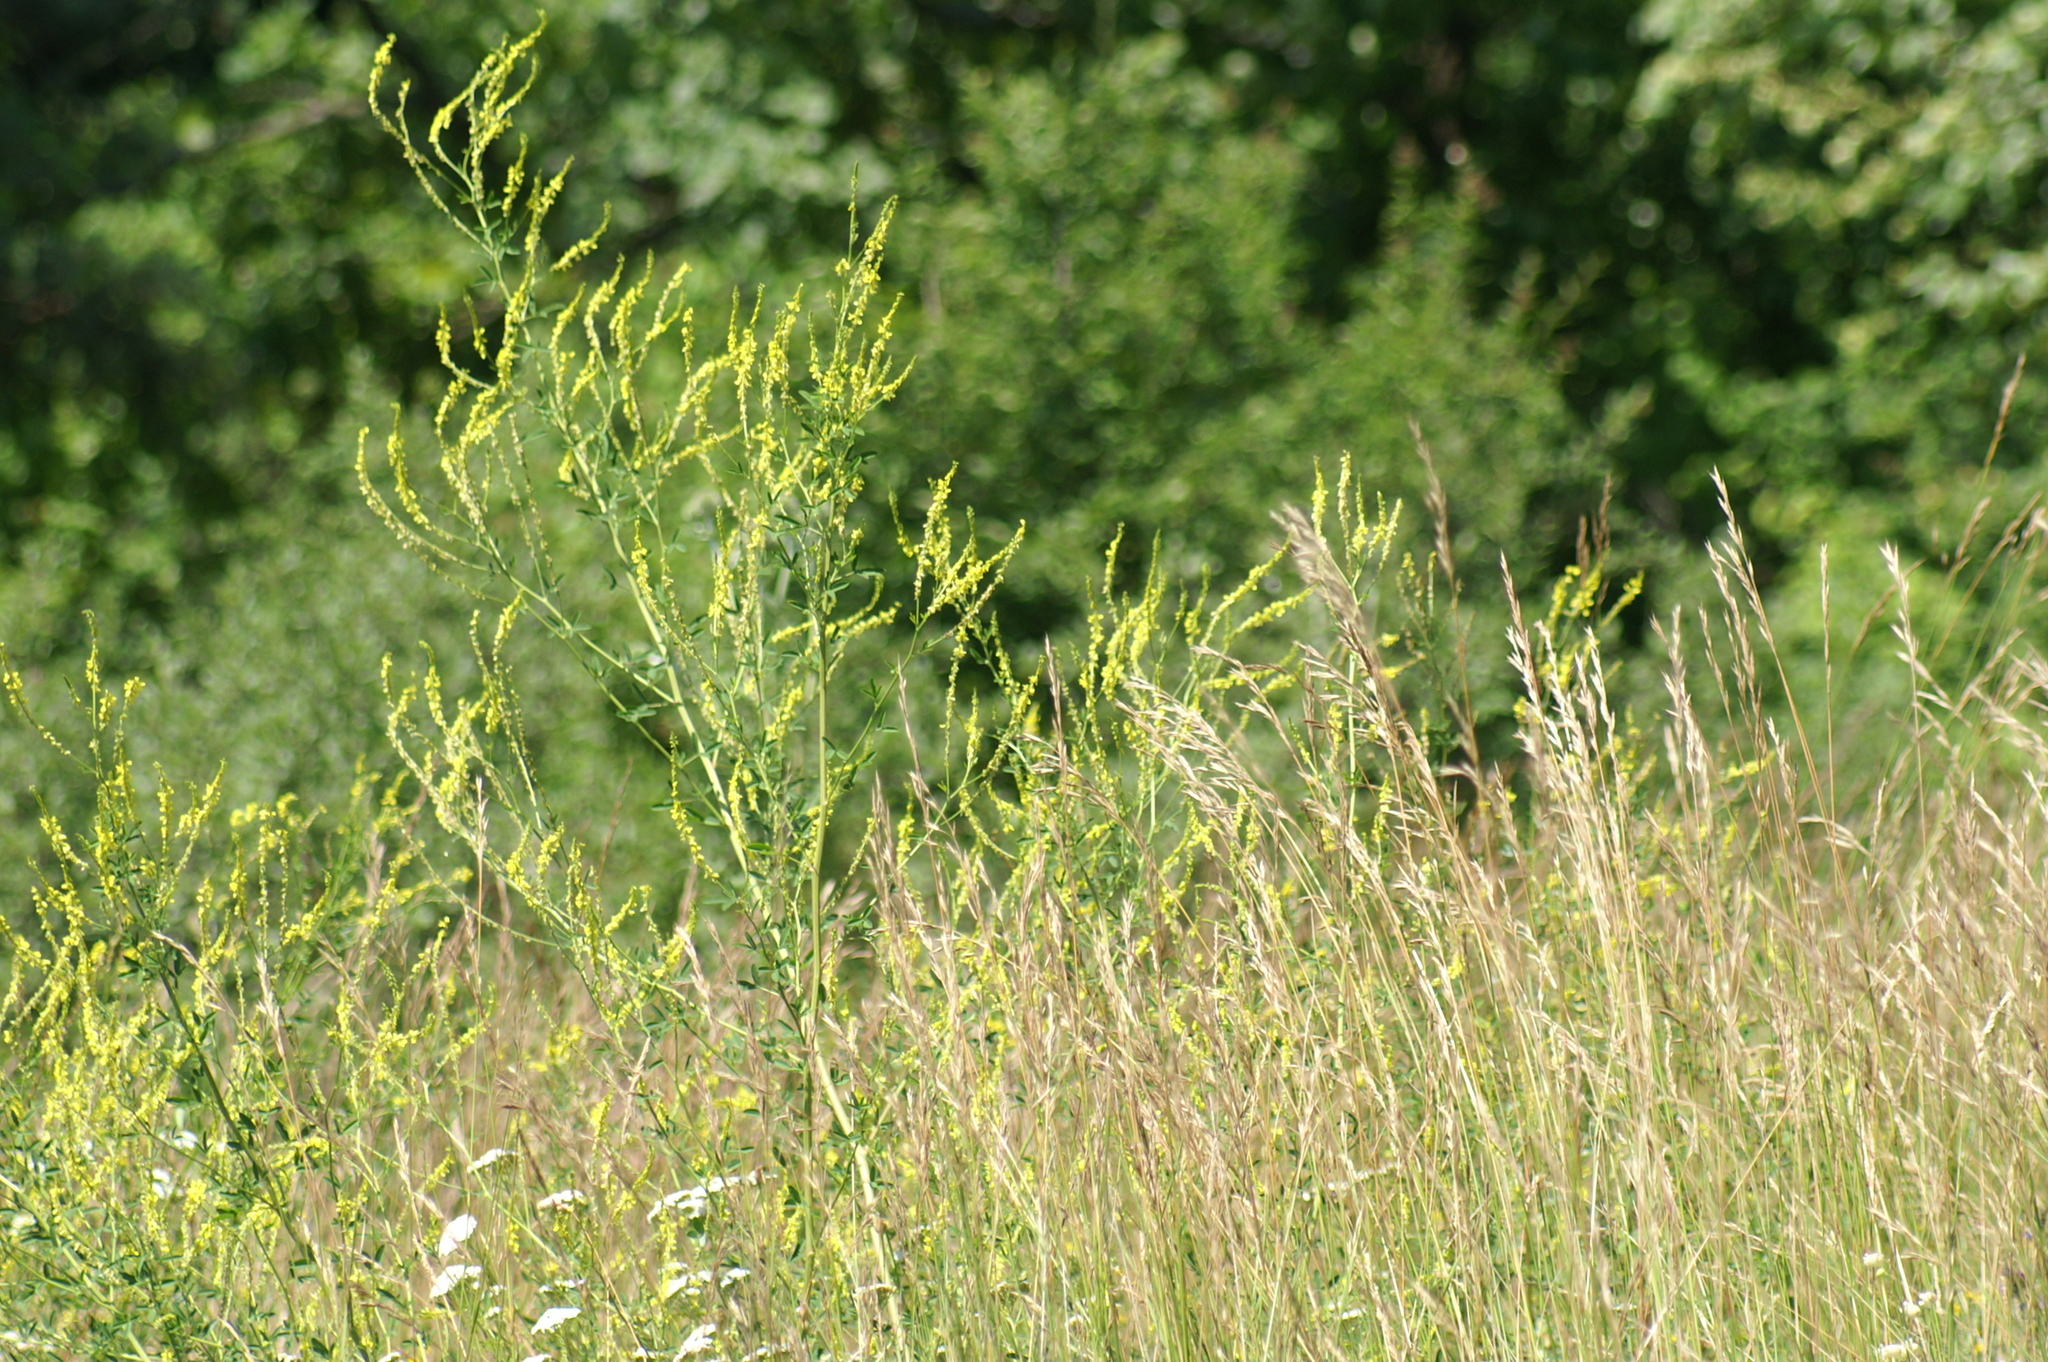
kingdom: Plantae
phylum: Tracheophyta
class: Magnoliopsida
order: Fabales
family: Fabaceae
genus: Melilotus
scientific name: Melilotus officinalis
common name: Sweetclover
